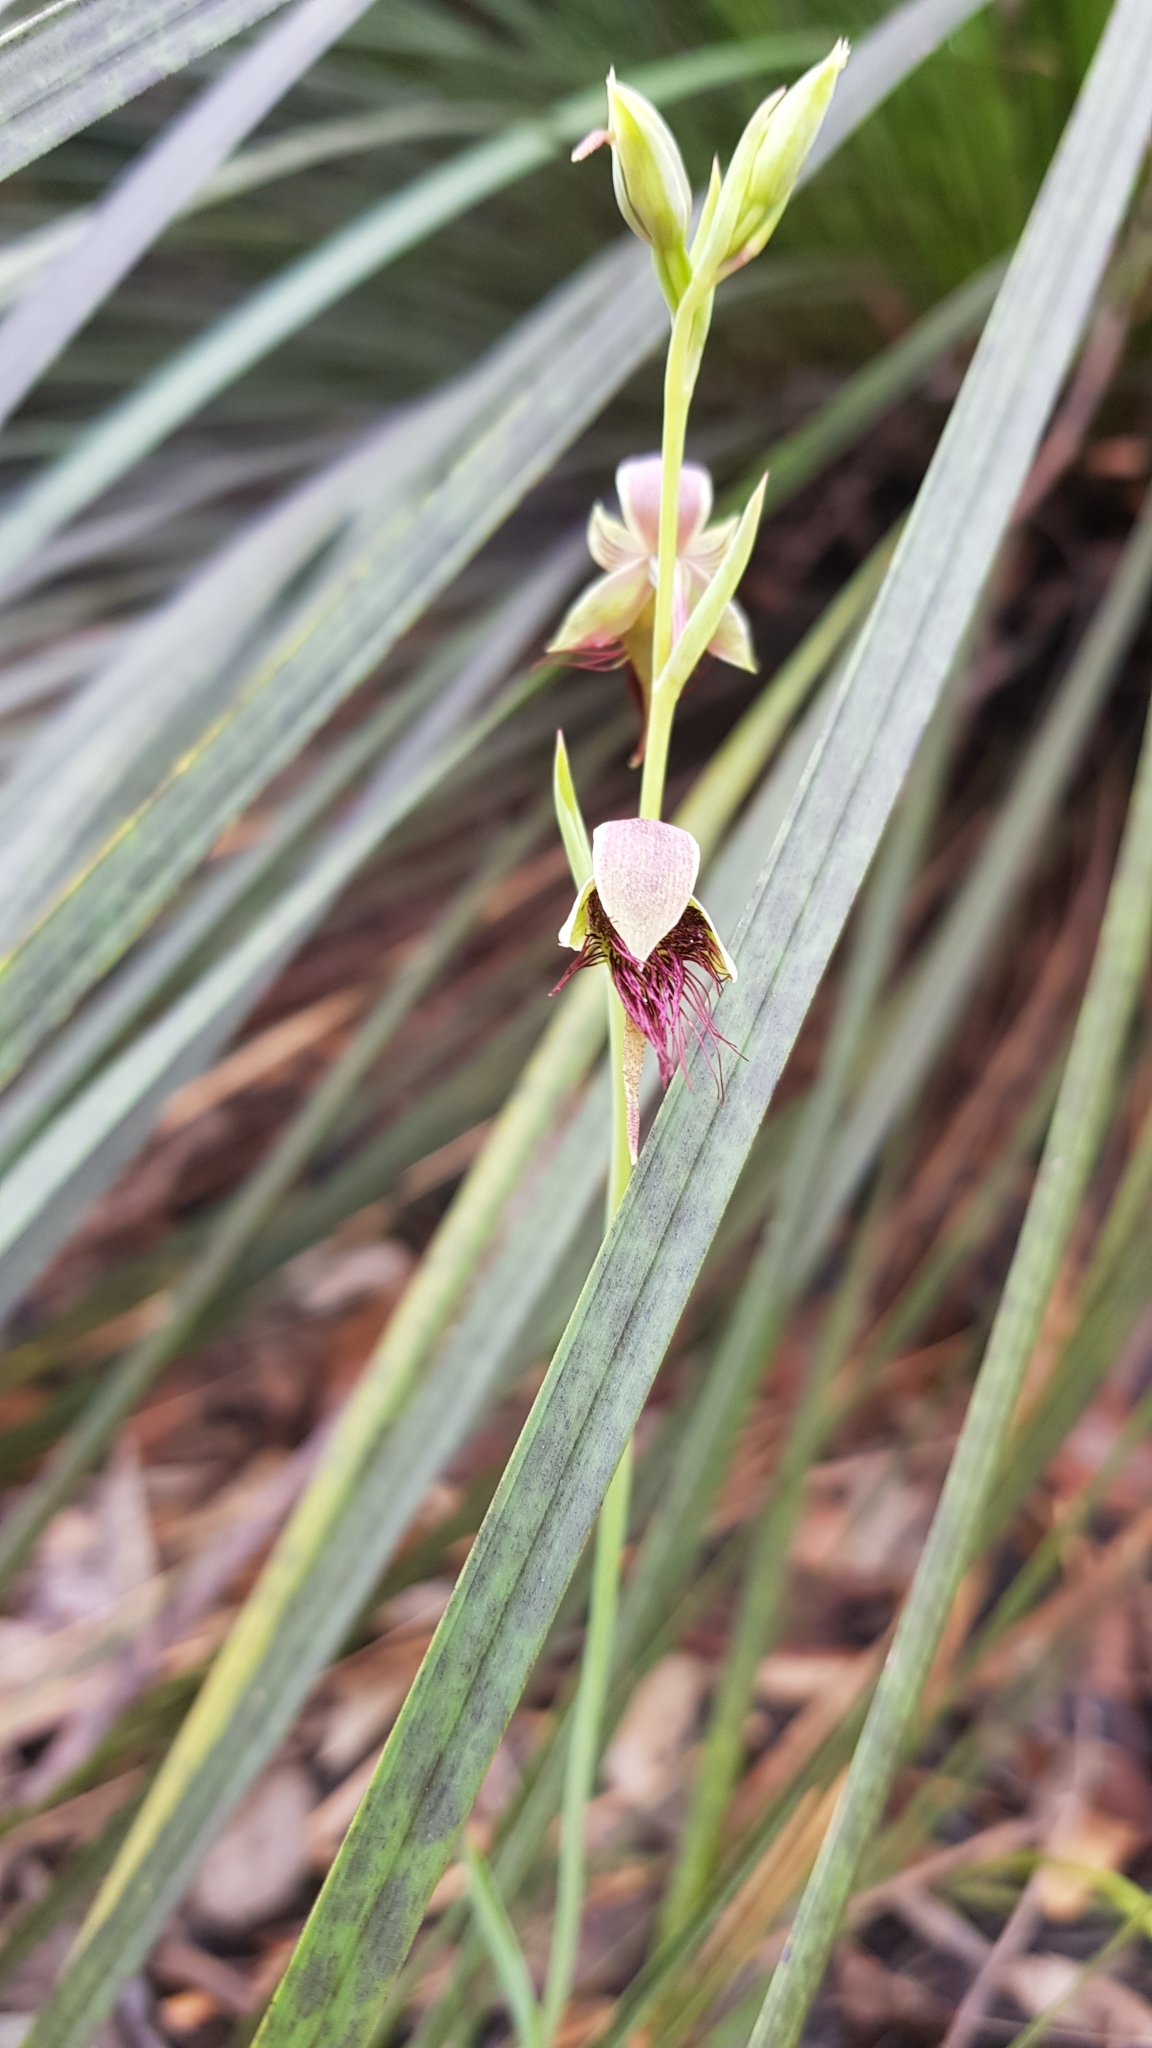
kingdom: Plantae
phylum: Tracheophyta
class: Liliopsida
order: Asparagales
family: Orchidaceae
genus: Calochilus
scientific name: Calochilus paludosus
